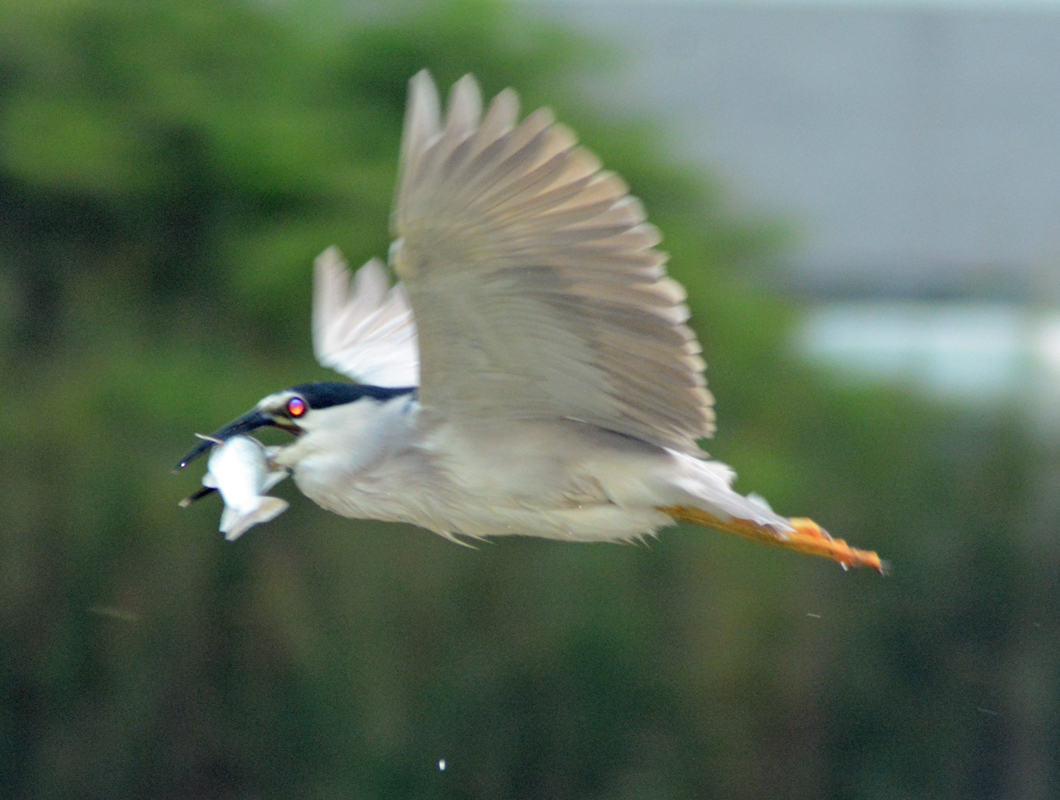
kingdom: Animalia
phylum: Chordata
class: Aves
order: Pelecaniformes
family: Ardeidae
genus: Nycticorax
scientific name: Nycticorax nycticorax
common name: Black-crowned night heron
